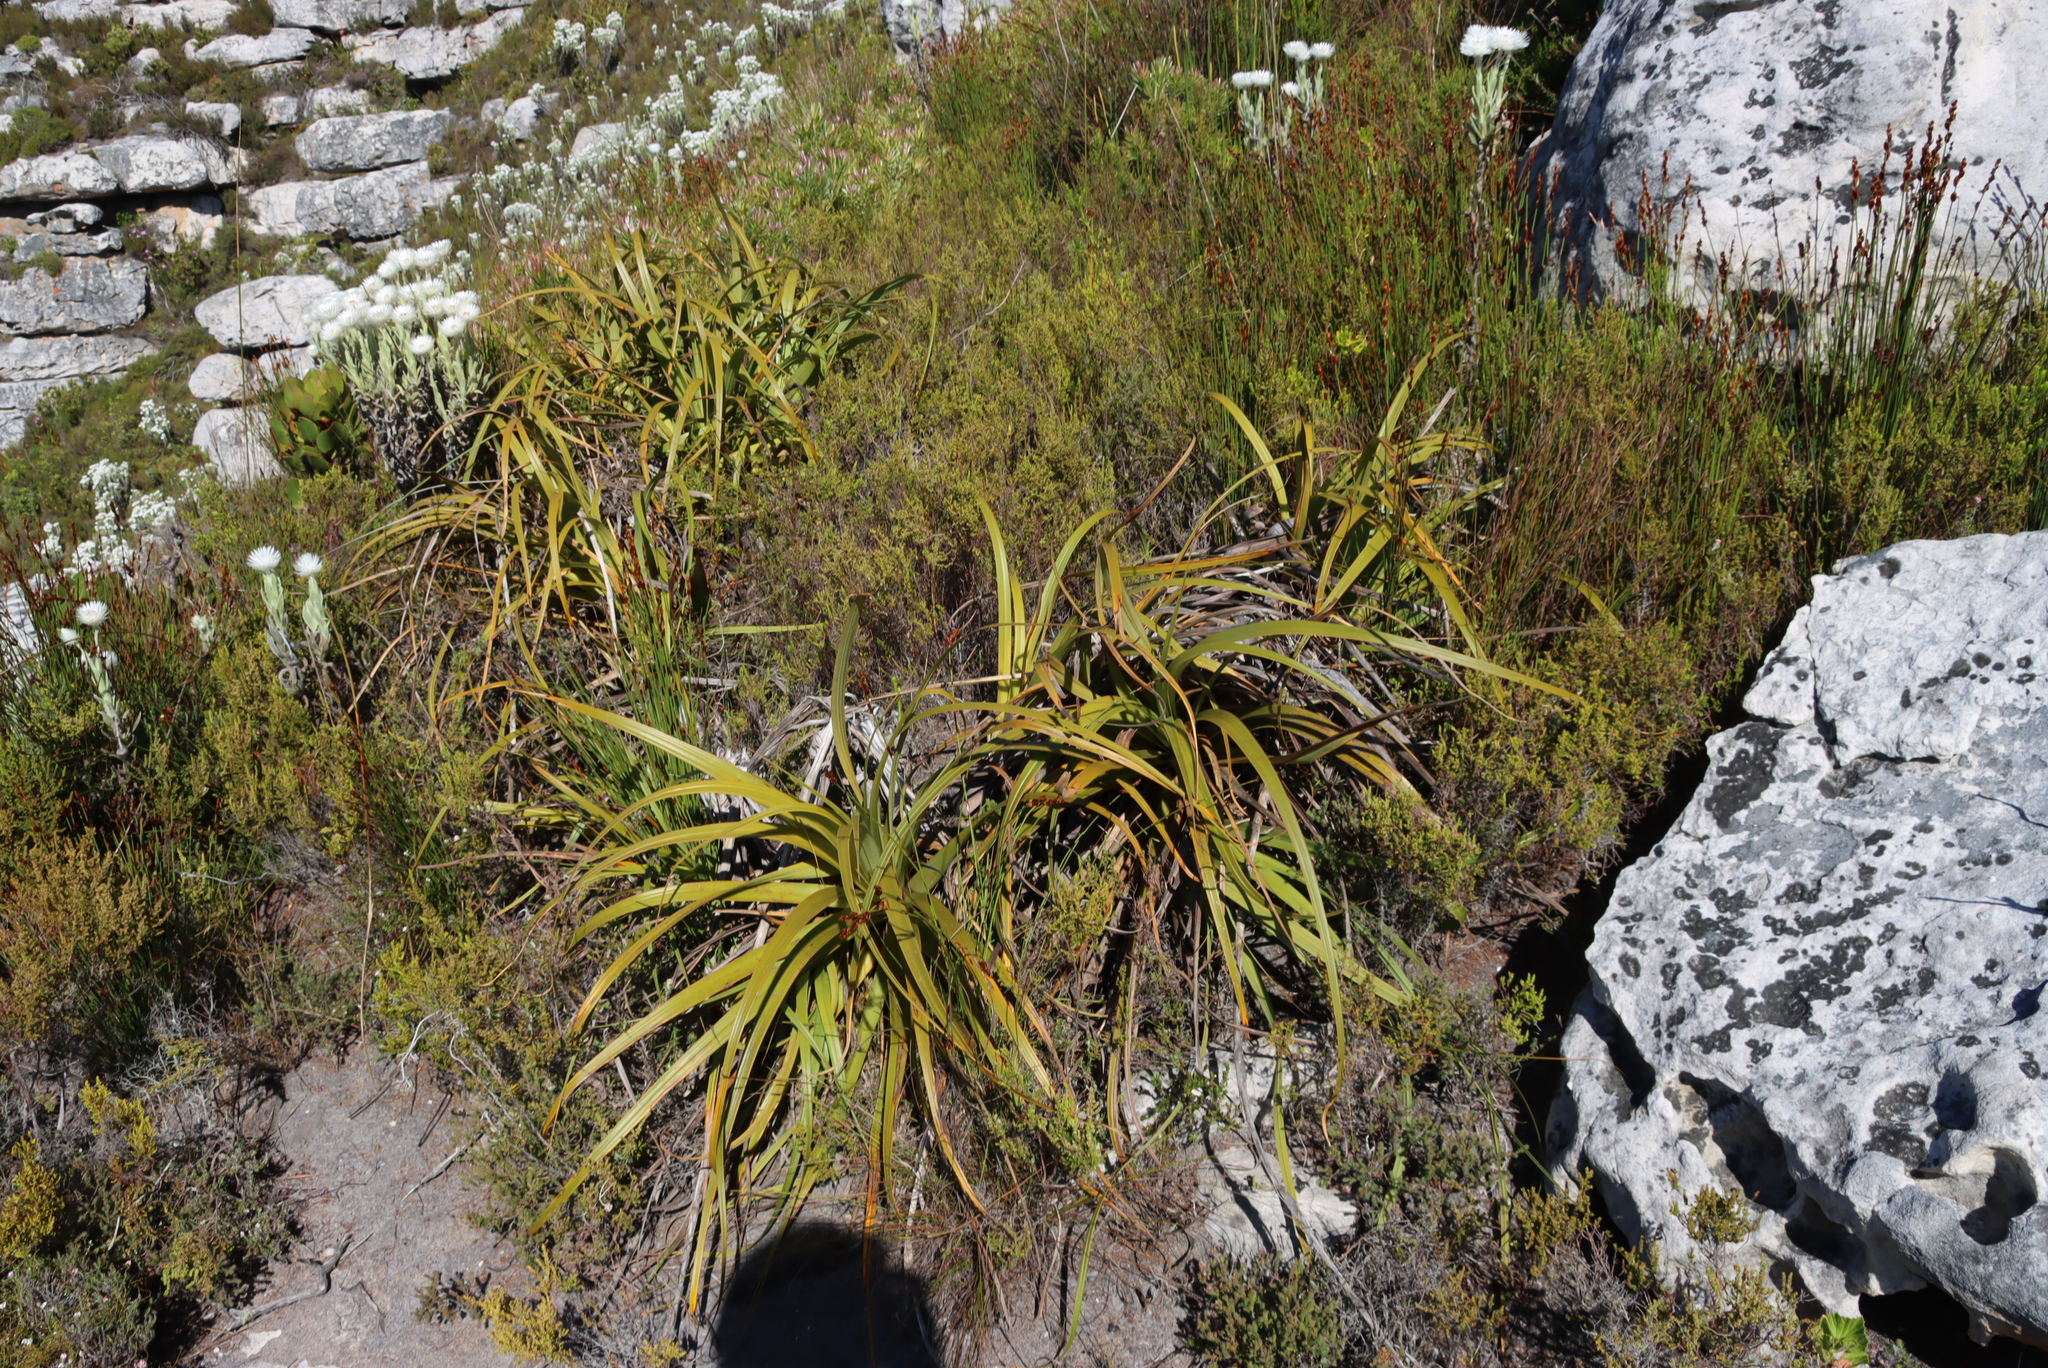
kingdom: Plantae
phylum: Tracheophyta
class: Liliopsida
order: Poales
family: Cyperaceae
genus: Tetraria
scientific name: Tetraria thermalis
